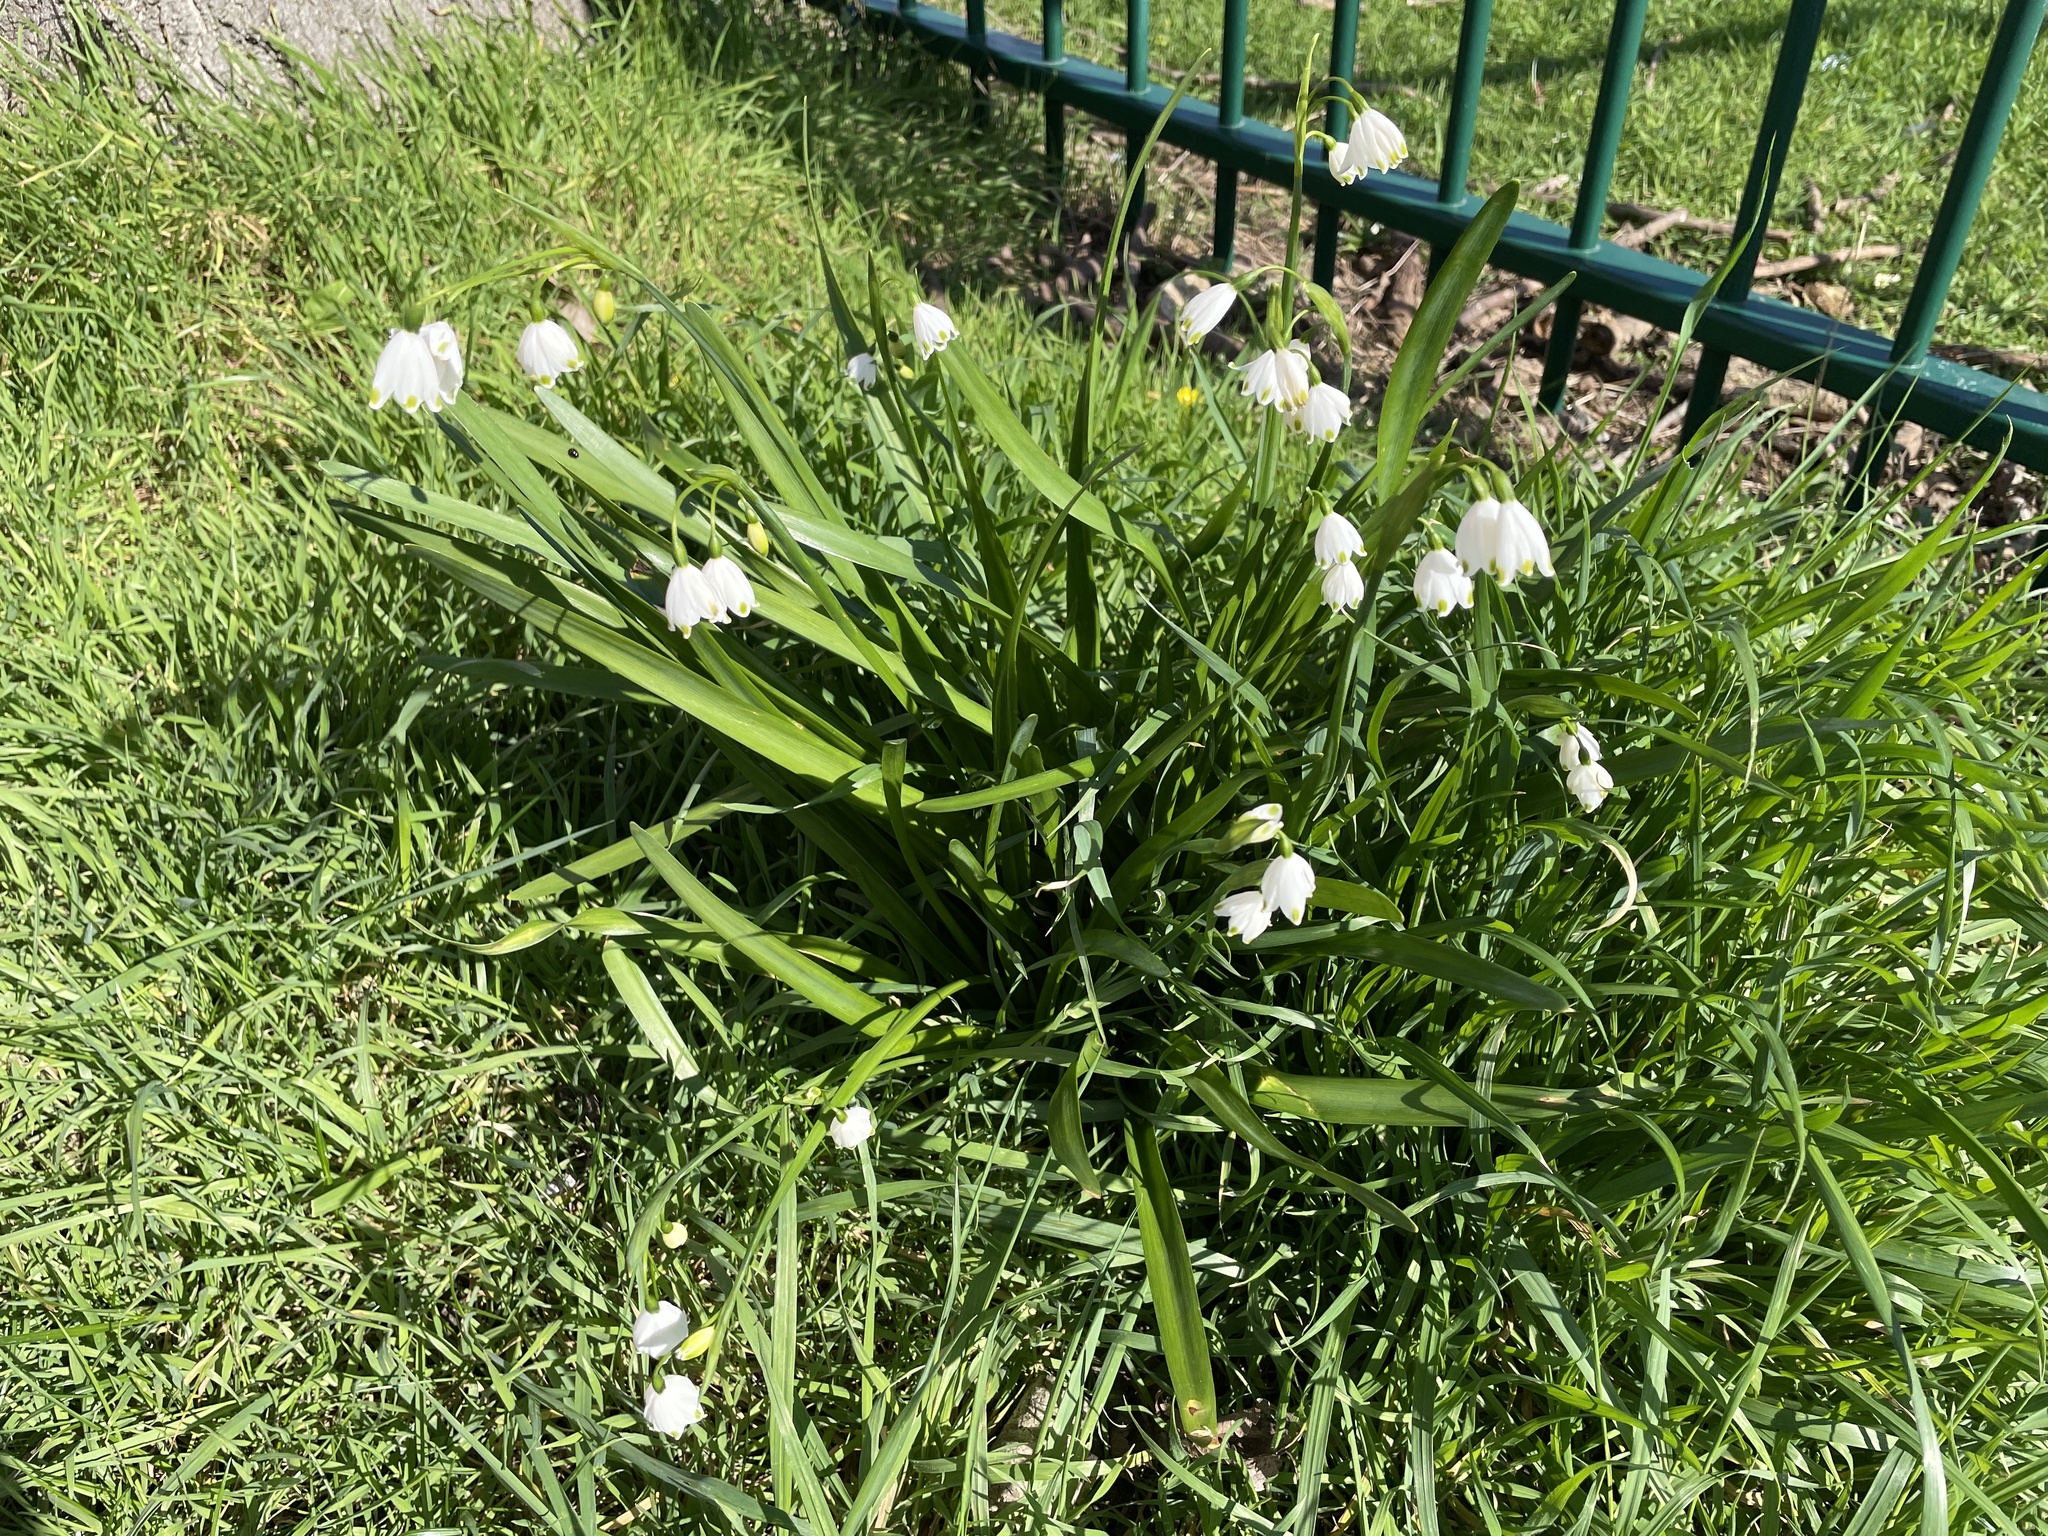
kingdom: Plantae
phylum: Tracheophyta
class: Liliopsida
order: Asparagales
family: Amaryllidaceae
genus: Leucojum
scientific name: Leucojum aestivum
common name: Summer snowflake
